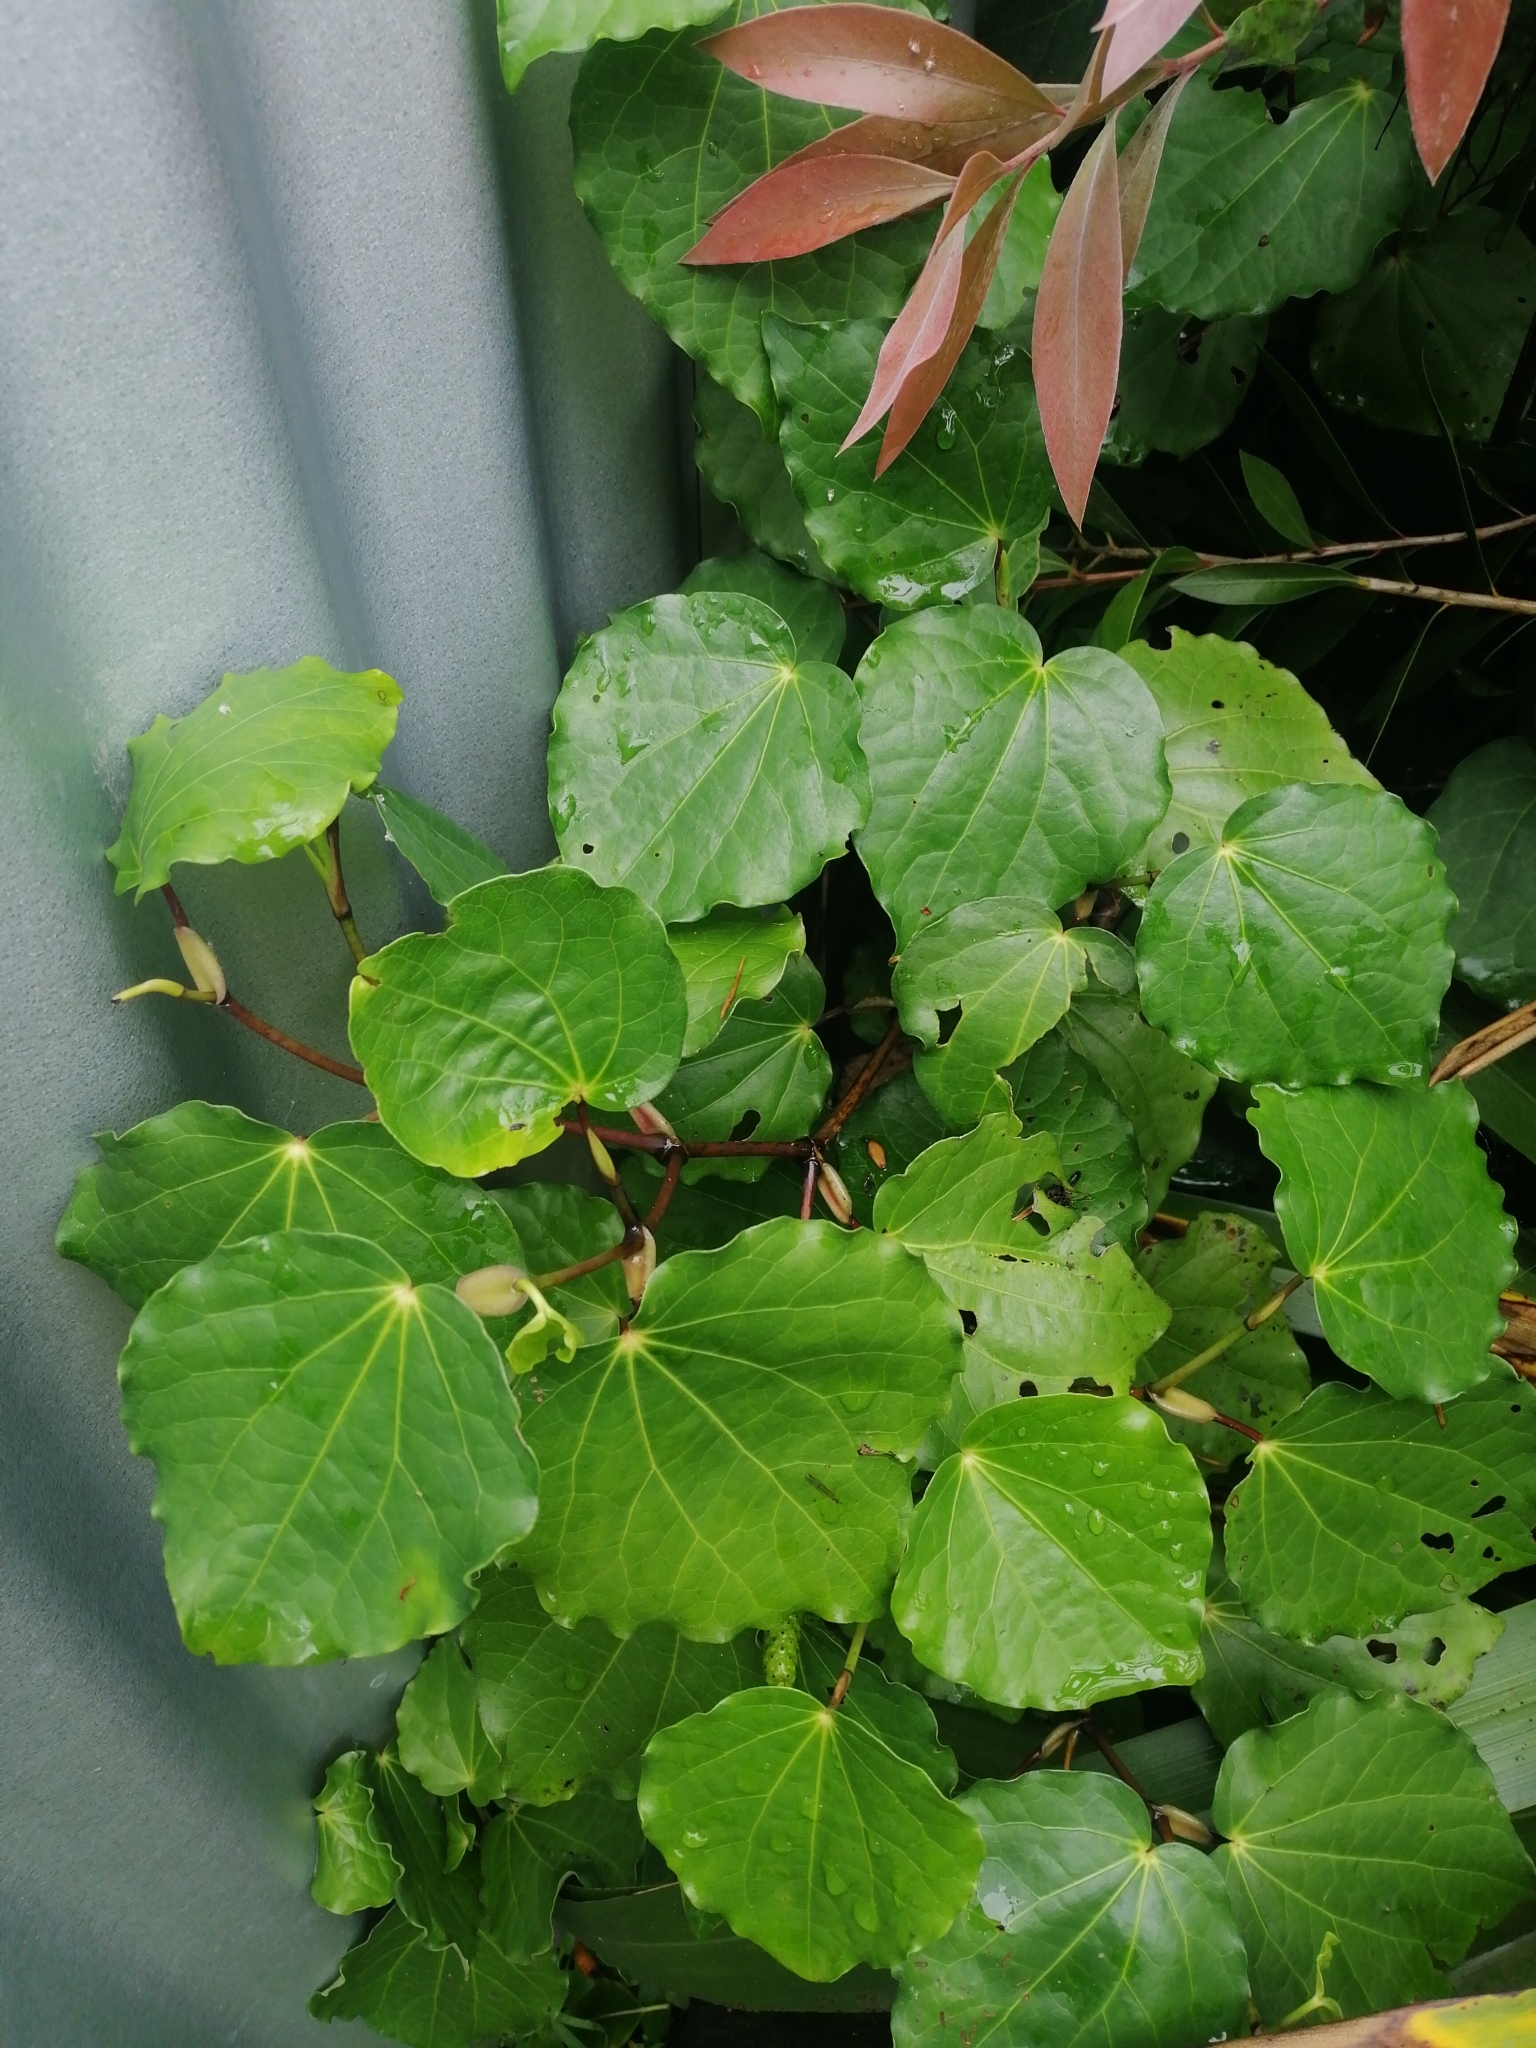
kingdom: Plantae
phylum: Tracheophyta
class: Magnoliopsida
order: Piperales
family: Piperaceae
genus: Macropiper
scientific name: Macropiper excelsum
